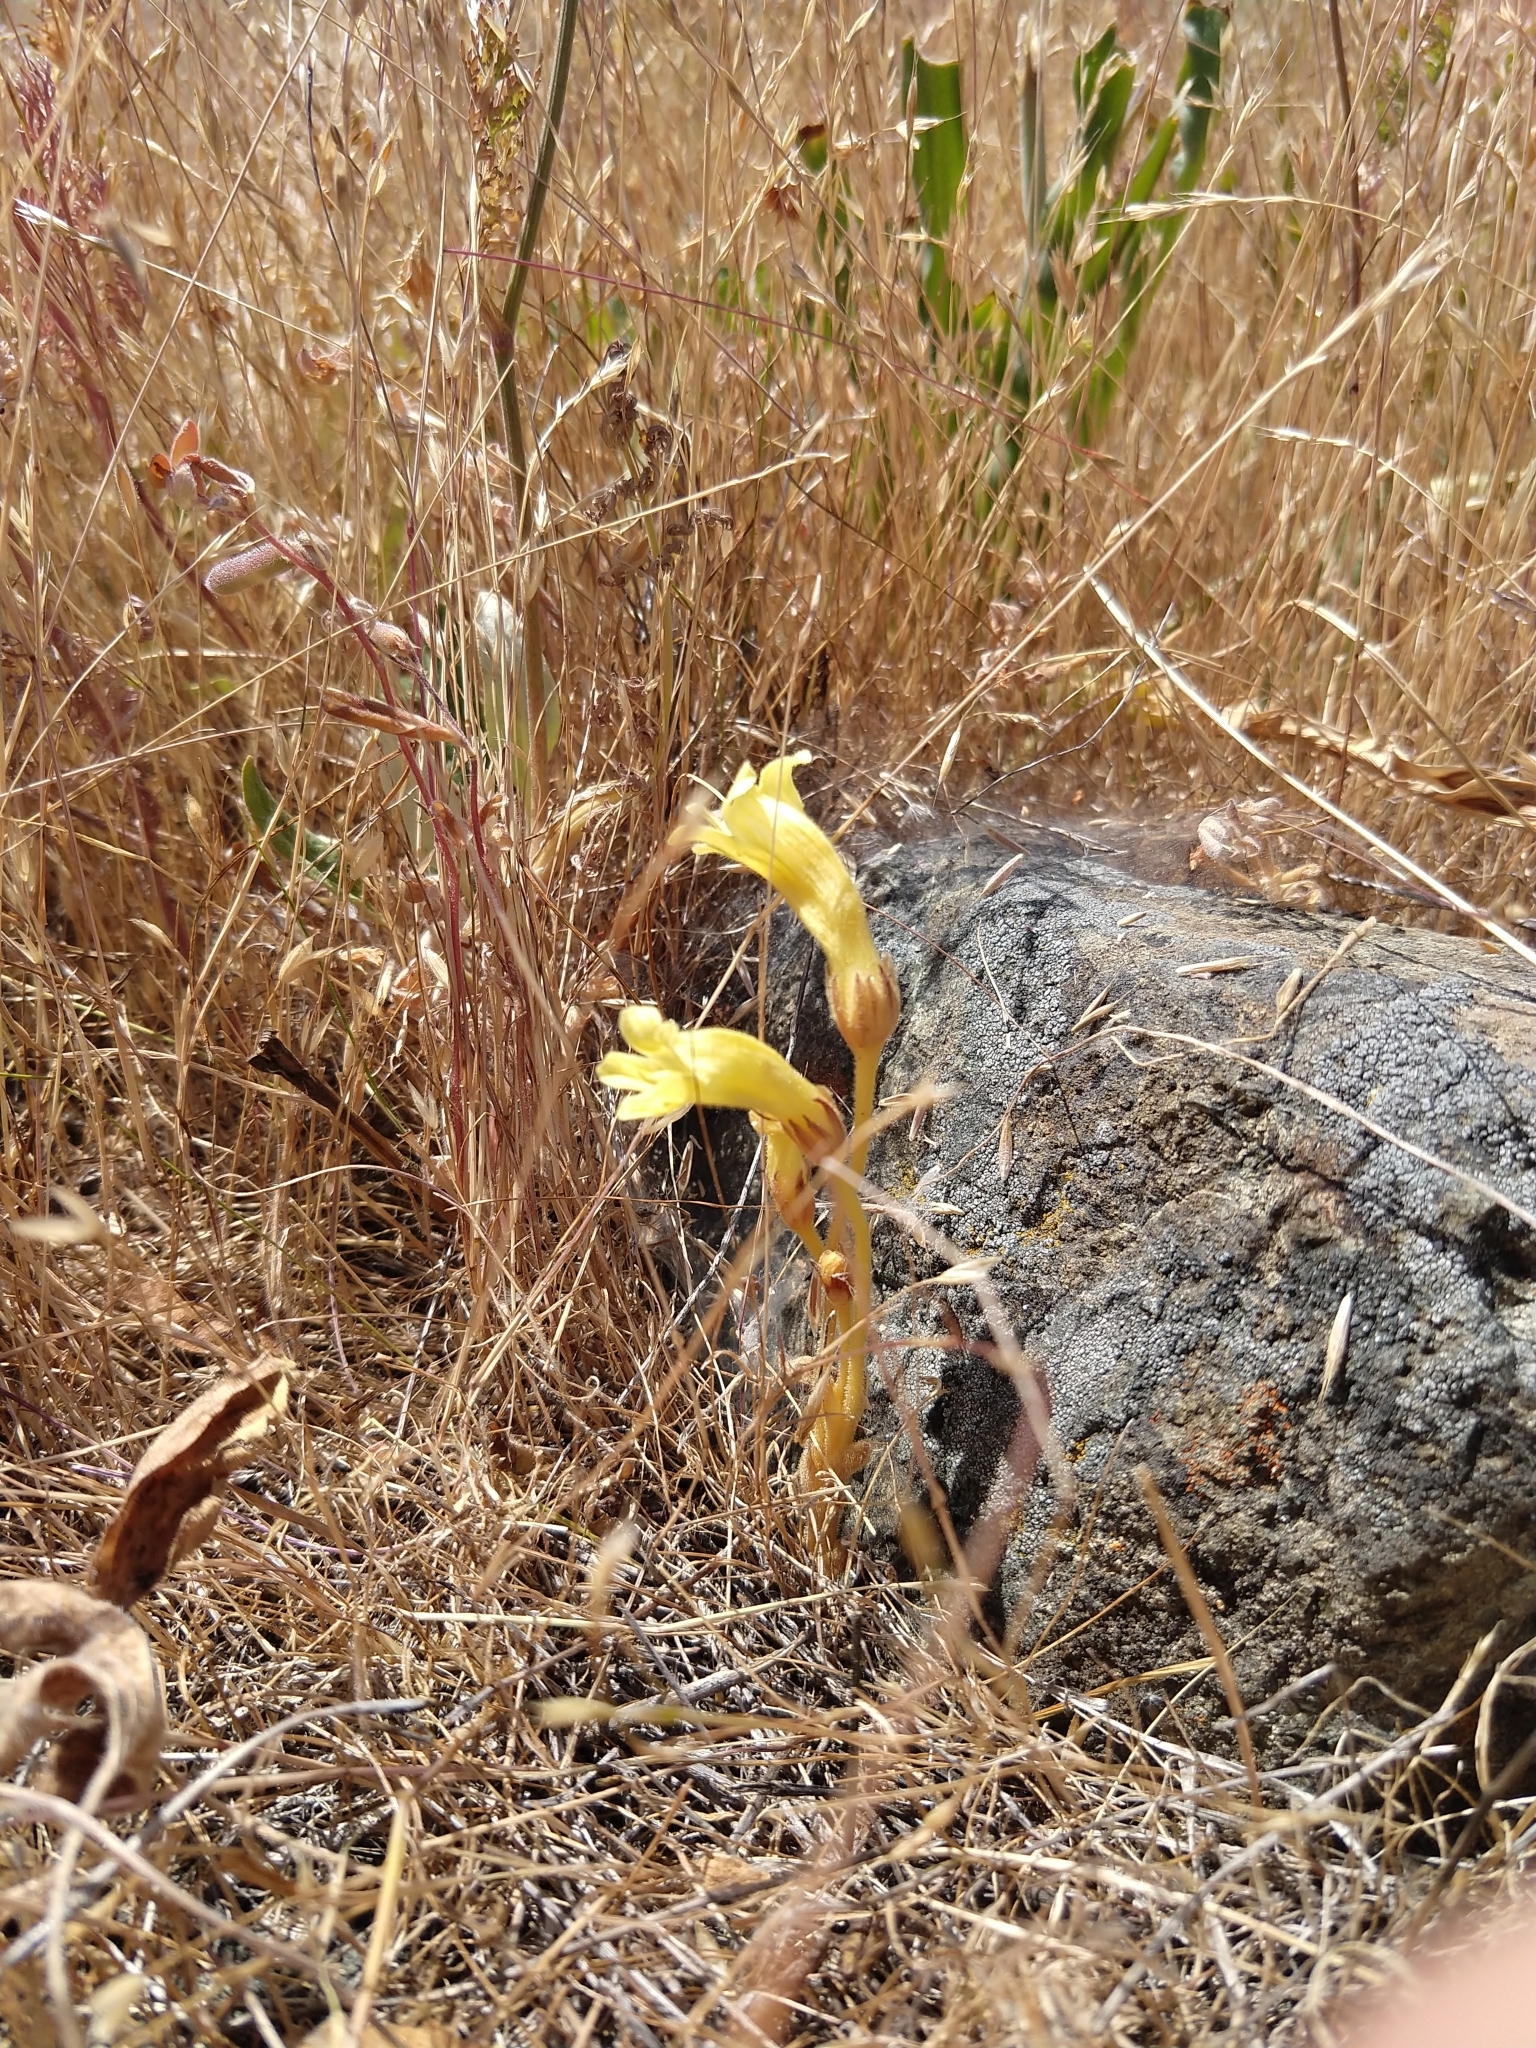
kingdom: Plantae
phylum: Tracheophyta
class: Magnoliopsida
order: Lamiales
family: Orobanchaceae
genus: Aphyllon
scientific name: Aphyllon franciscanum
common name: San francisco broomrape
